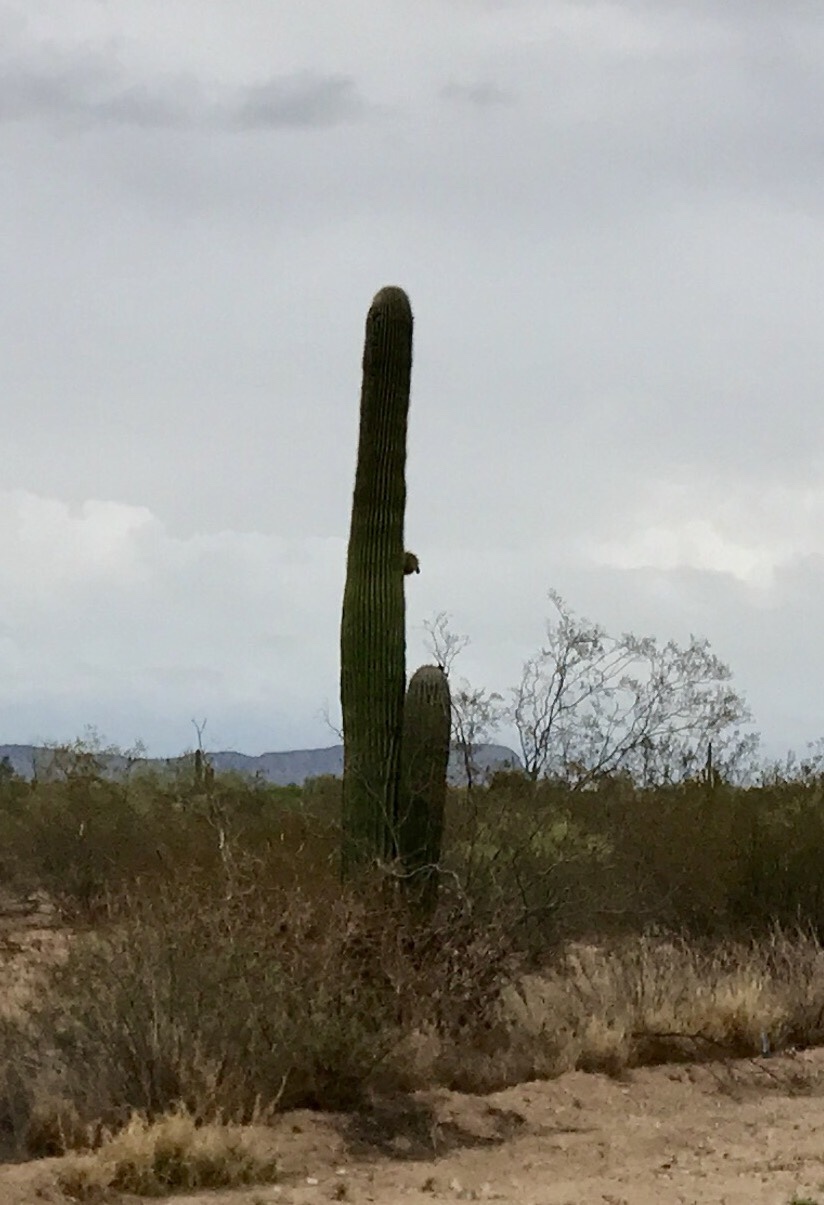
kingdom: Plantae
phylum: Tracheophyta
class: Magnoliopsida
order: Caryophyllales
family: Cactaceae
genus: Carnegiea
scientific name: Carnegiea gigantea
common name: Saguaro
